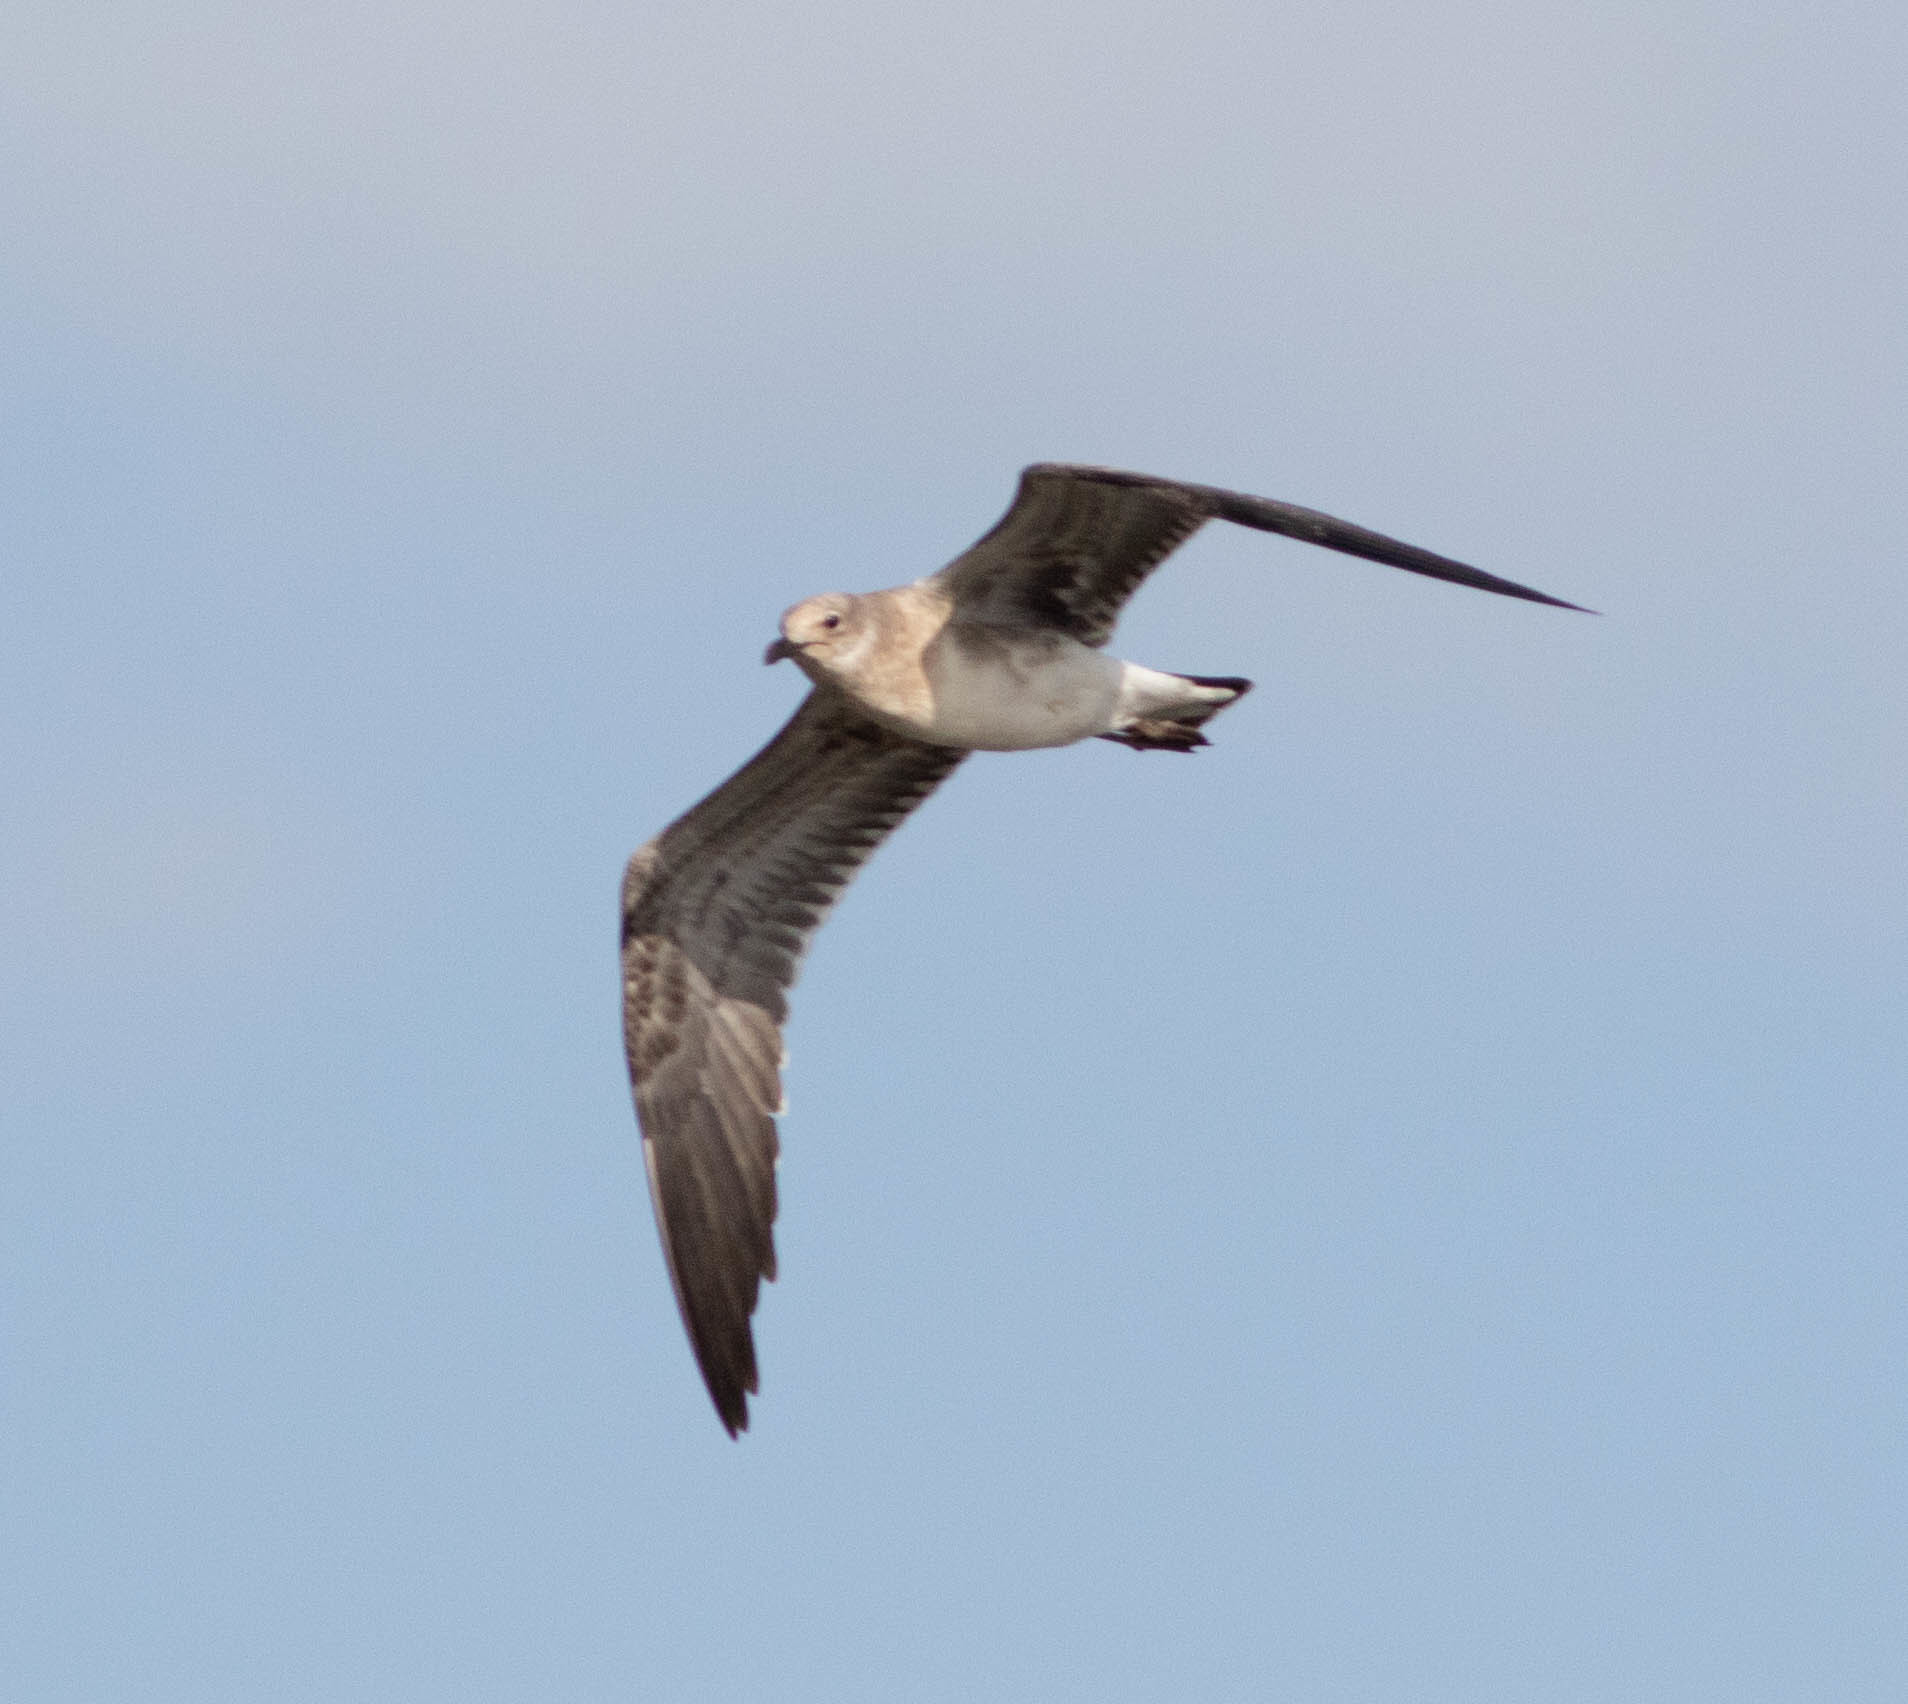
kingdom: Animalia
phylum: Chordata
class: Aves
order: Charadriiformes
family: Laridae
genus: Leucophaeus
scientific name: Leucophaeus atricilla
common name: Laughing gull
